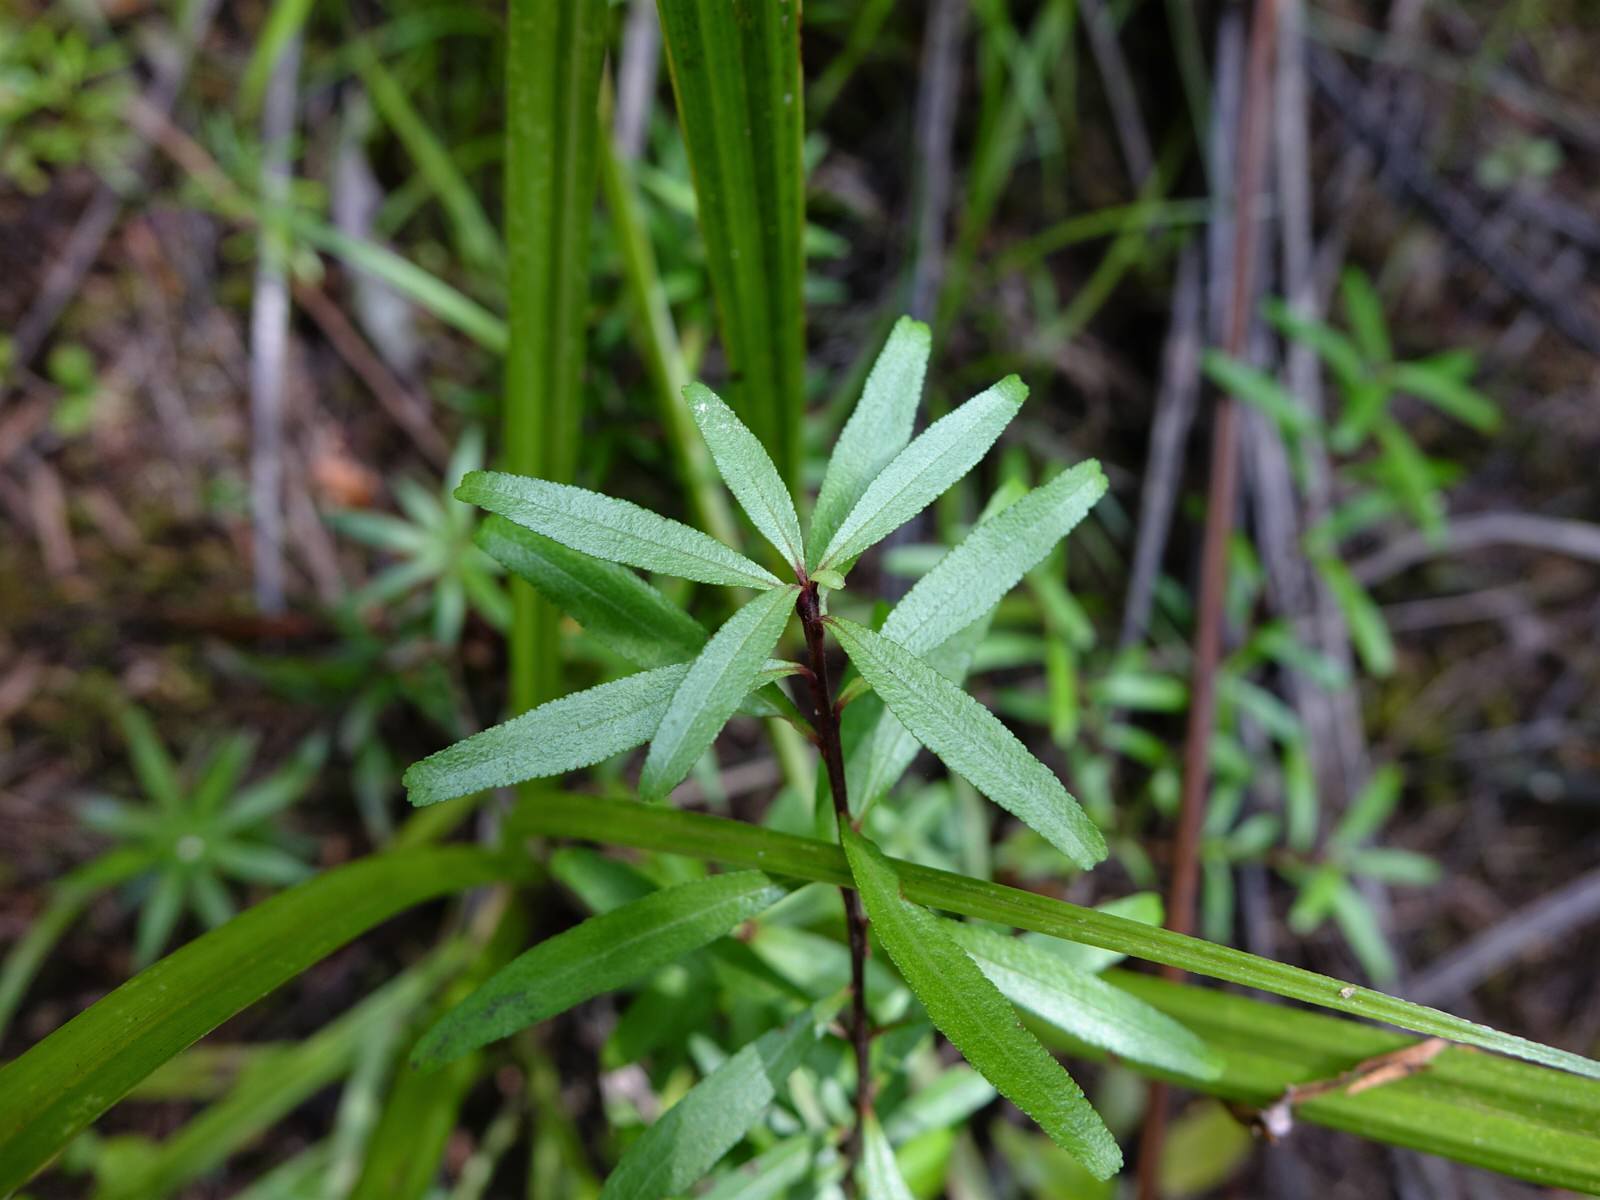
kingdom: Plantae
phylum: Tracheophyta
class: Magnoliopsida
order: Sapindales
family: Rutaceae
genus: Leionema
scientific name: Leionema nudum
